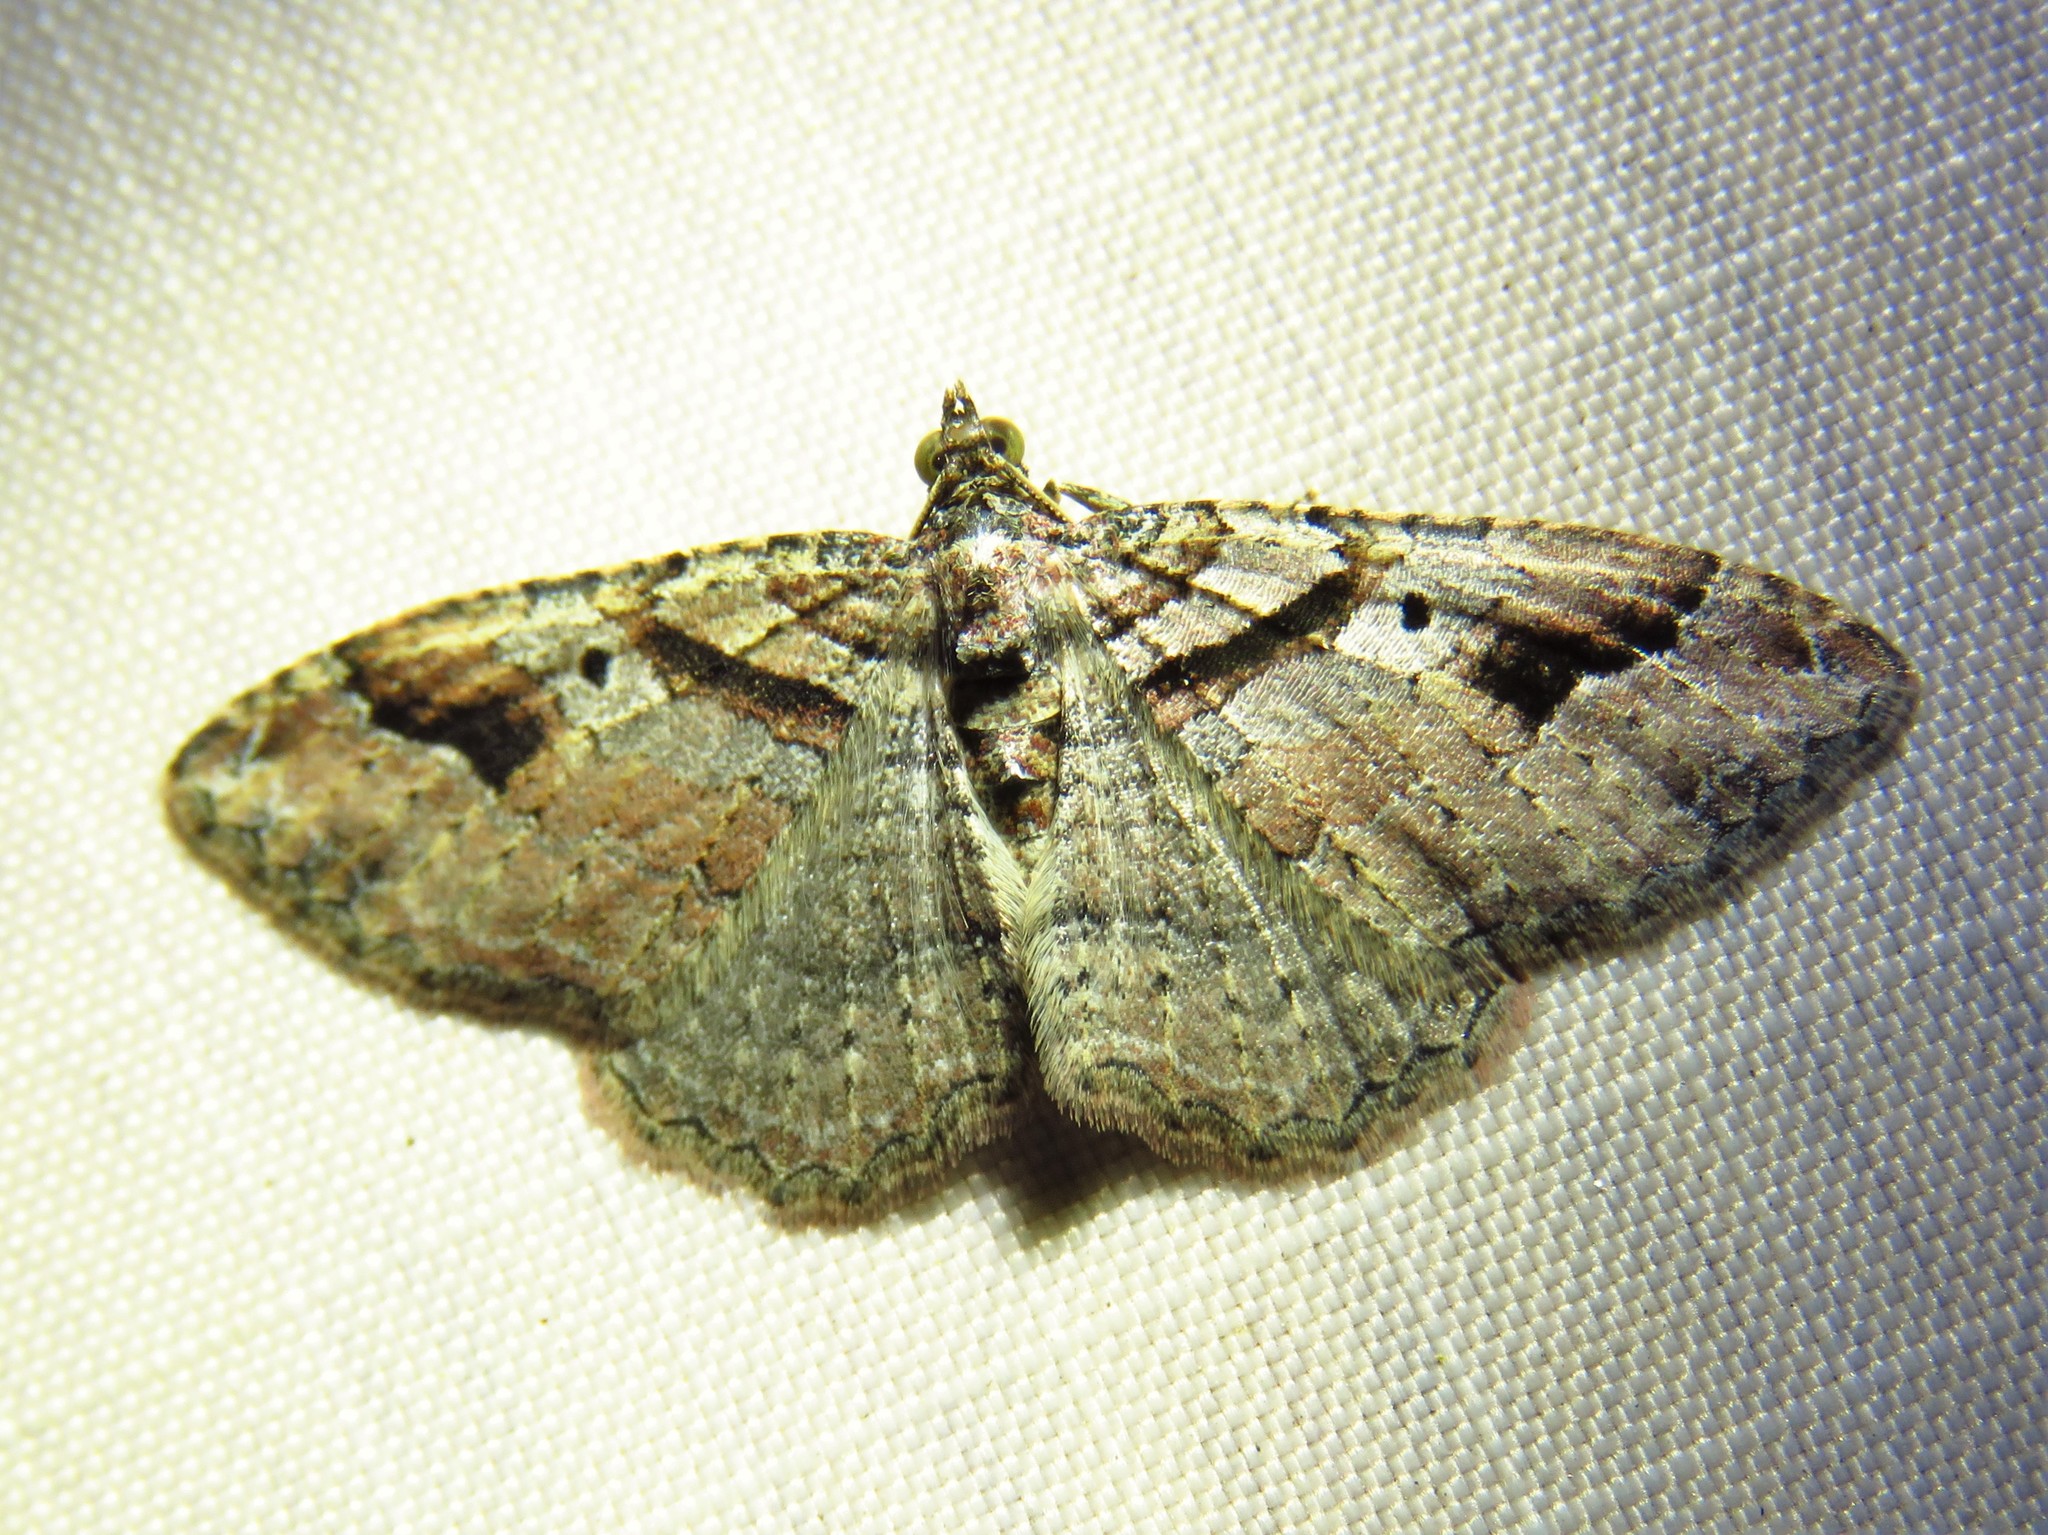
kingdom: Animalia
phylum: Arthropoda
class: Insecta
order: Lepidoptera
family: Geometridae
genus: Costaconvexa
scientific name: Costaconvexa centrostrigaria
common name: Bent-line carpet
